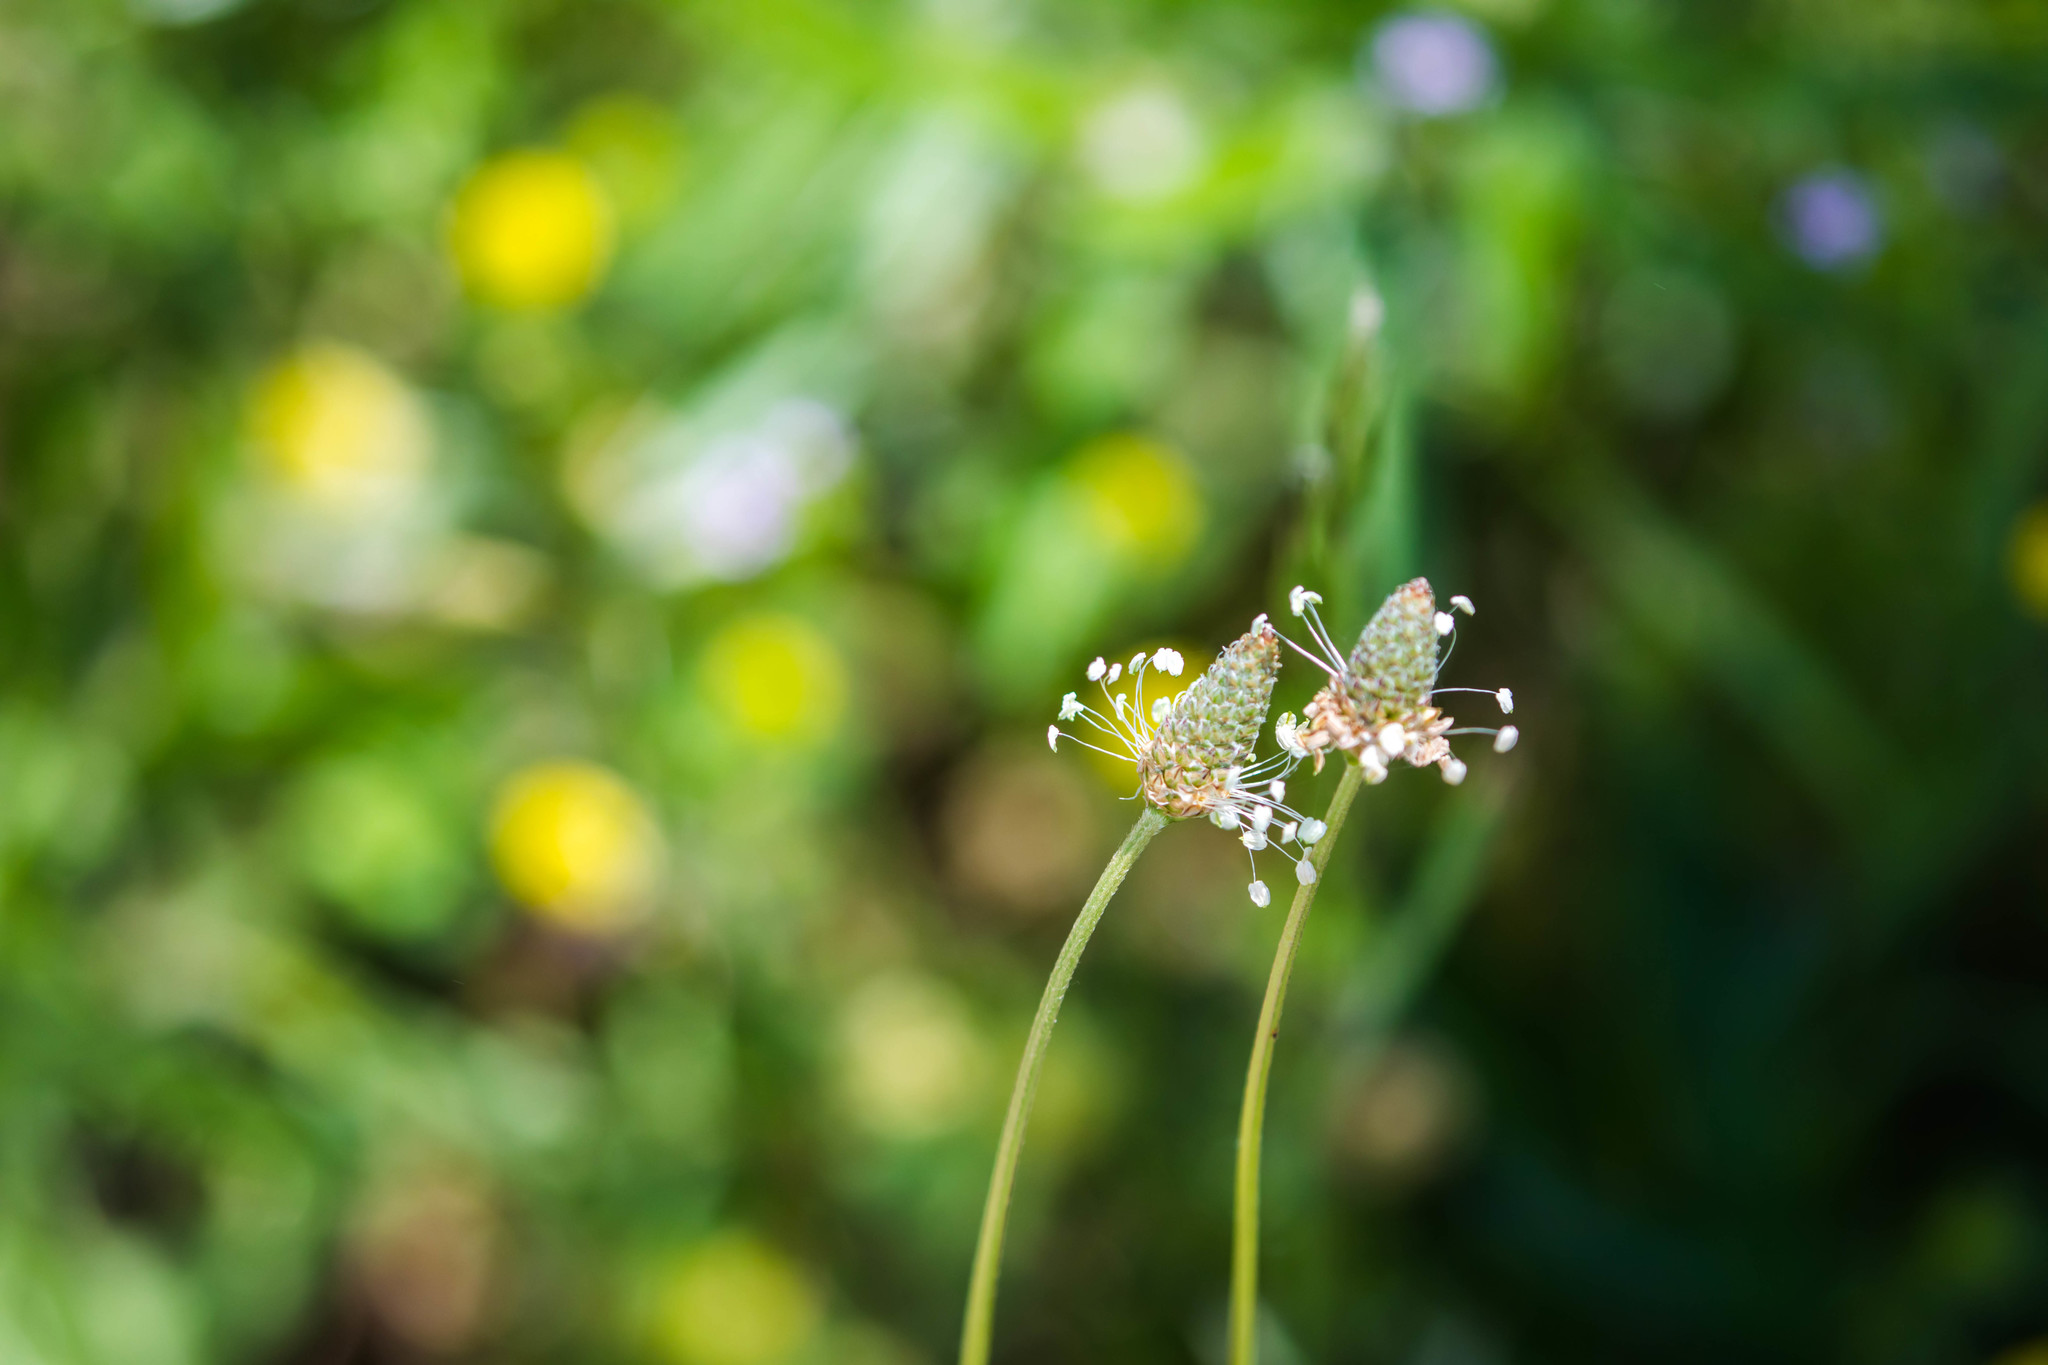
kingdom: Plantae
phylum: Tracheophyta
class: Magnoliopsida
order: Lamiales
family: Plantaginaceae
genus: Plantago
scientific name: Plantago lanceolata
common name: Ribwort plantain
